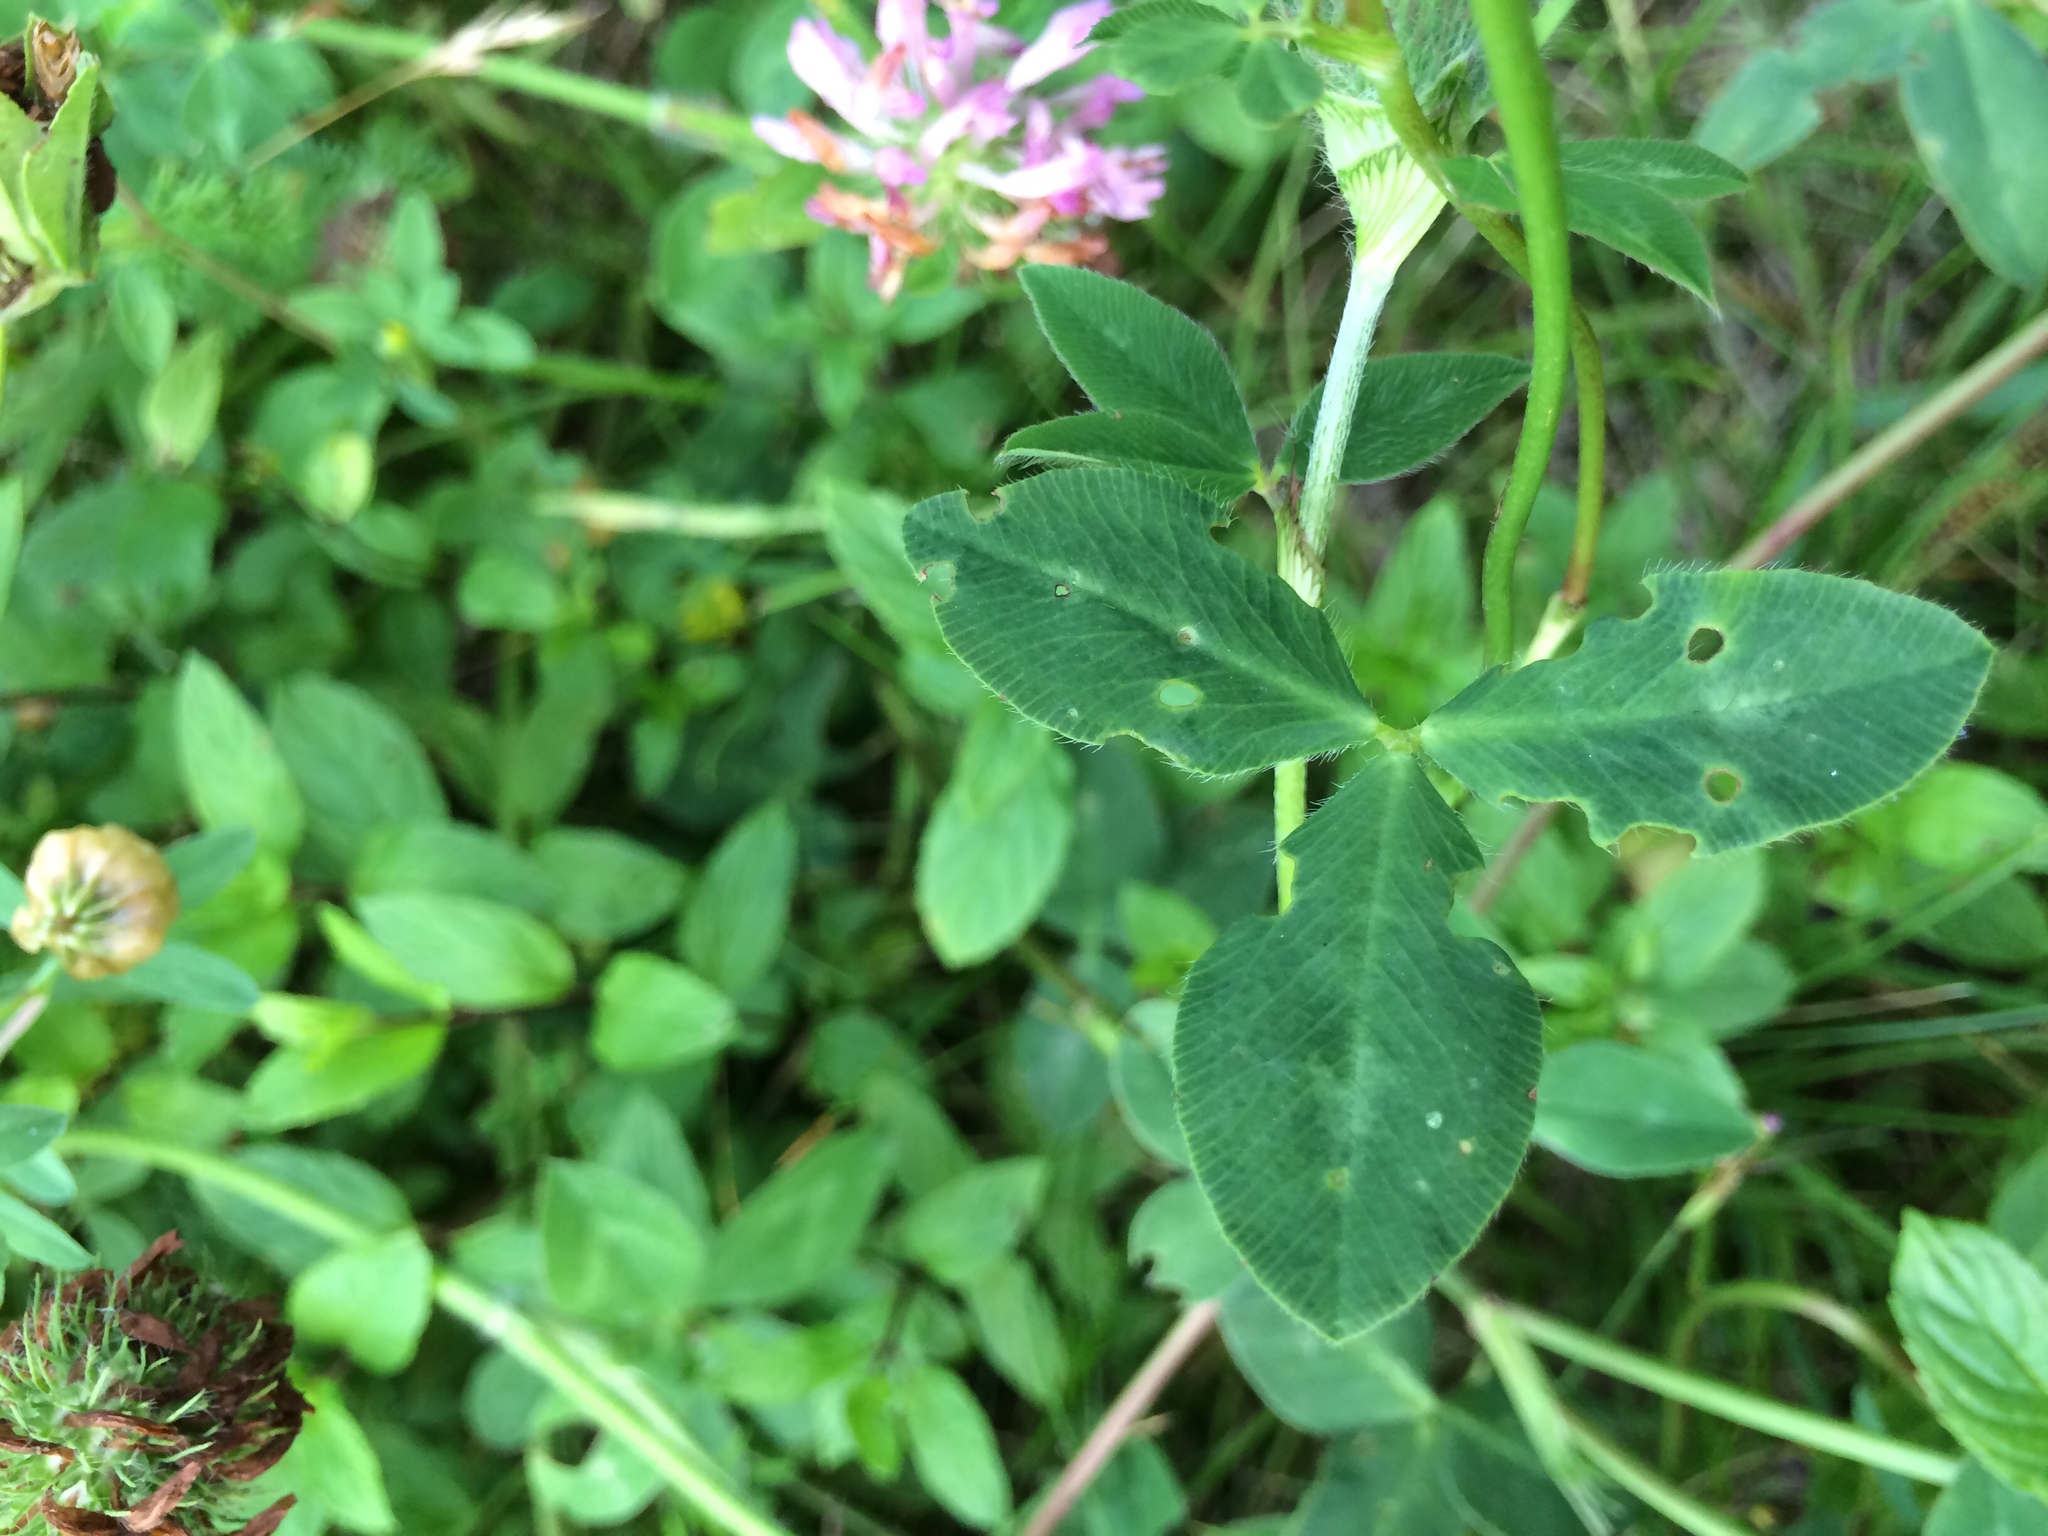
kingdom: Plantae
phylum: Tracheophyta
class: Magnoliopsida
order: Fabales
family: Fabaceae
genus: Trifolium
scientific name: Trifolium pratense
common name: Red clover
